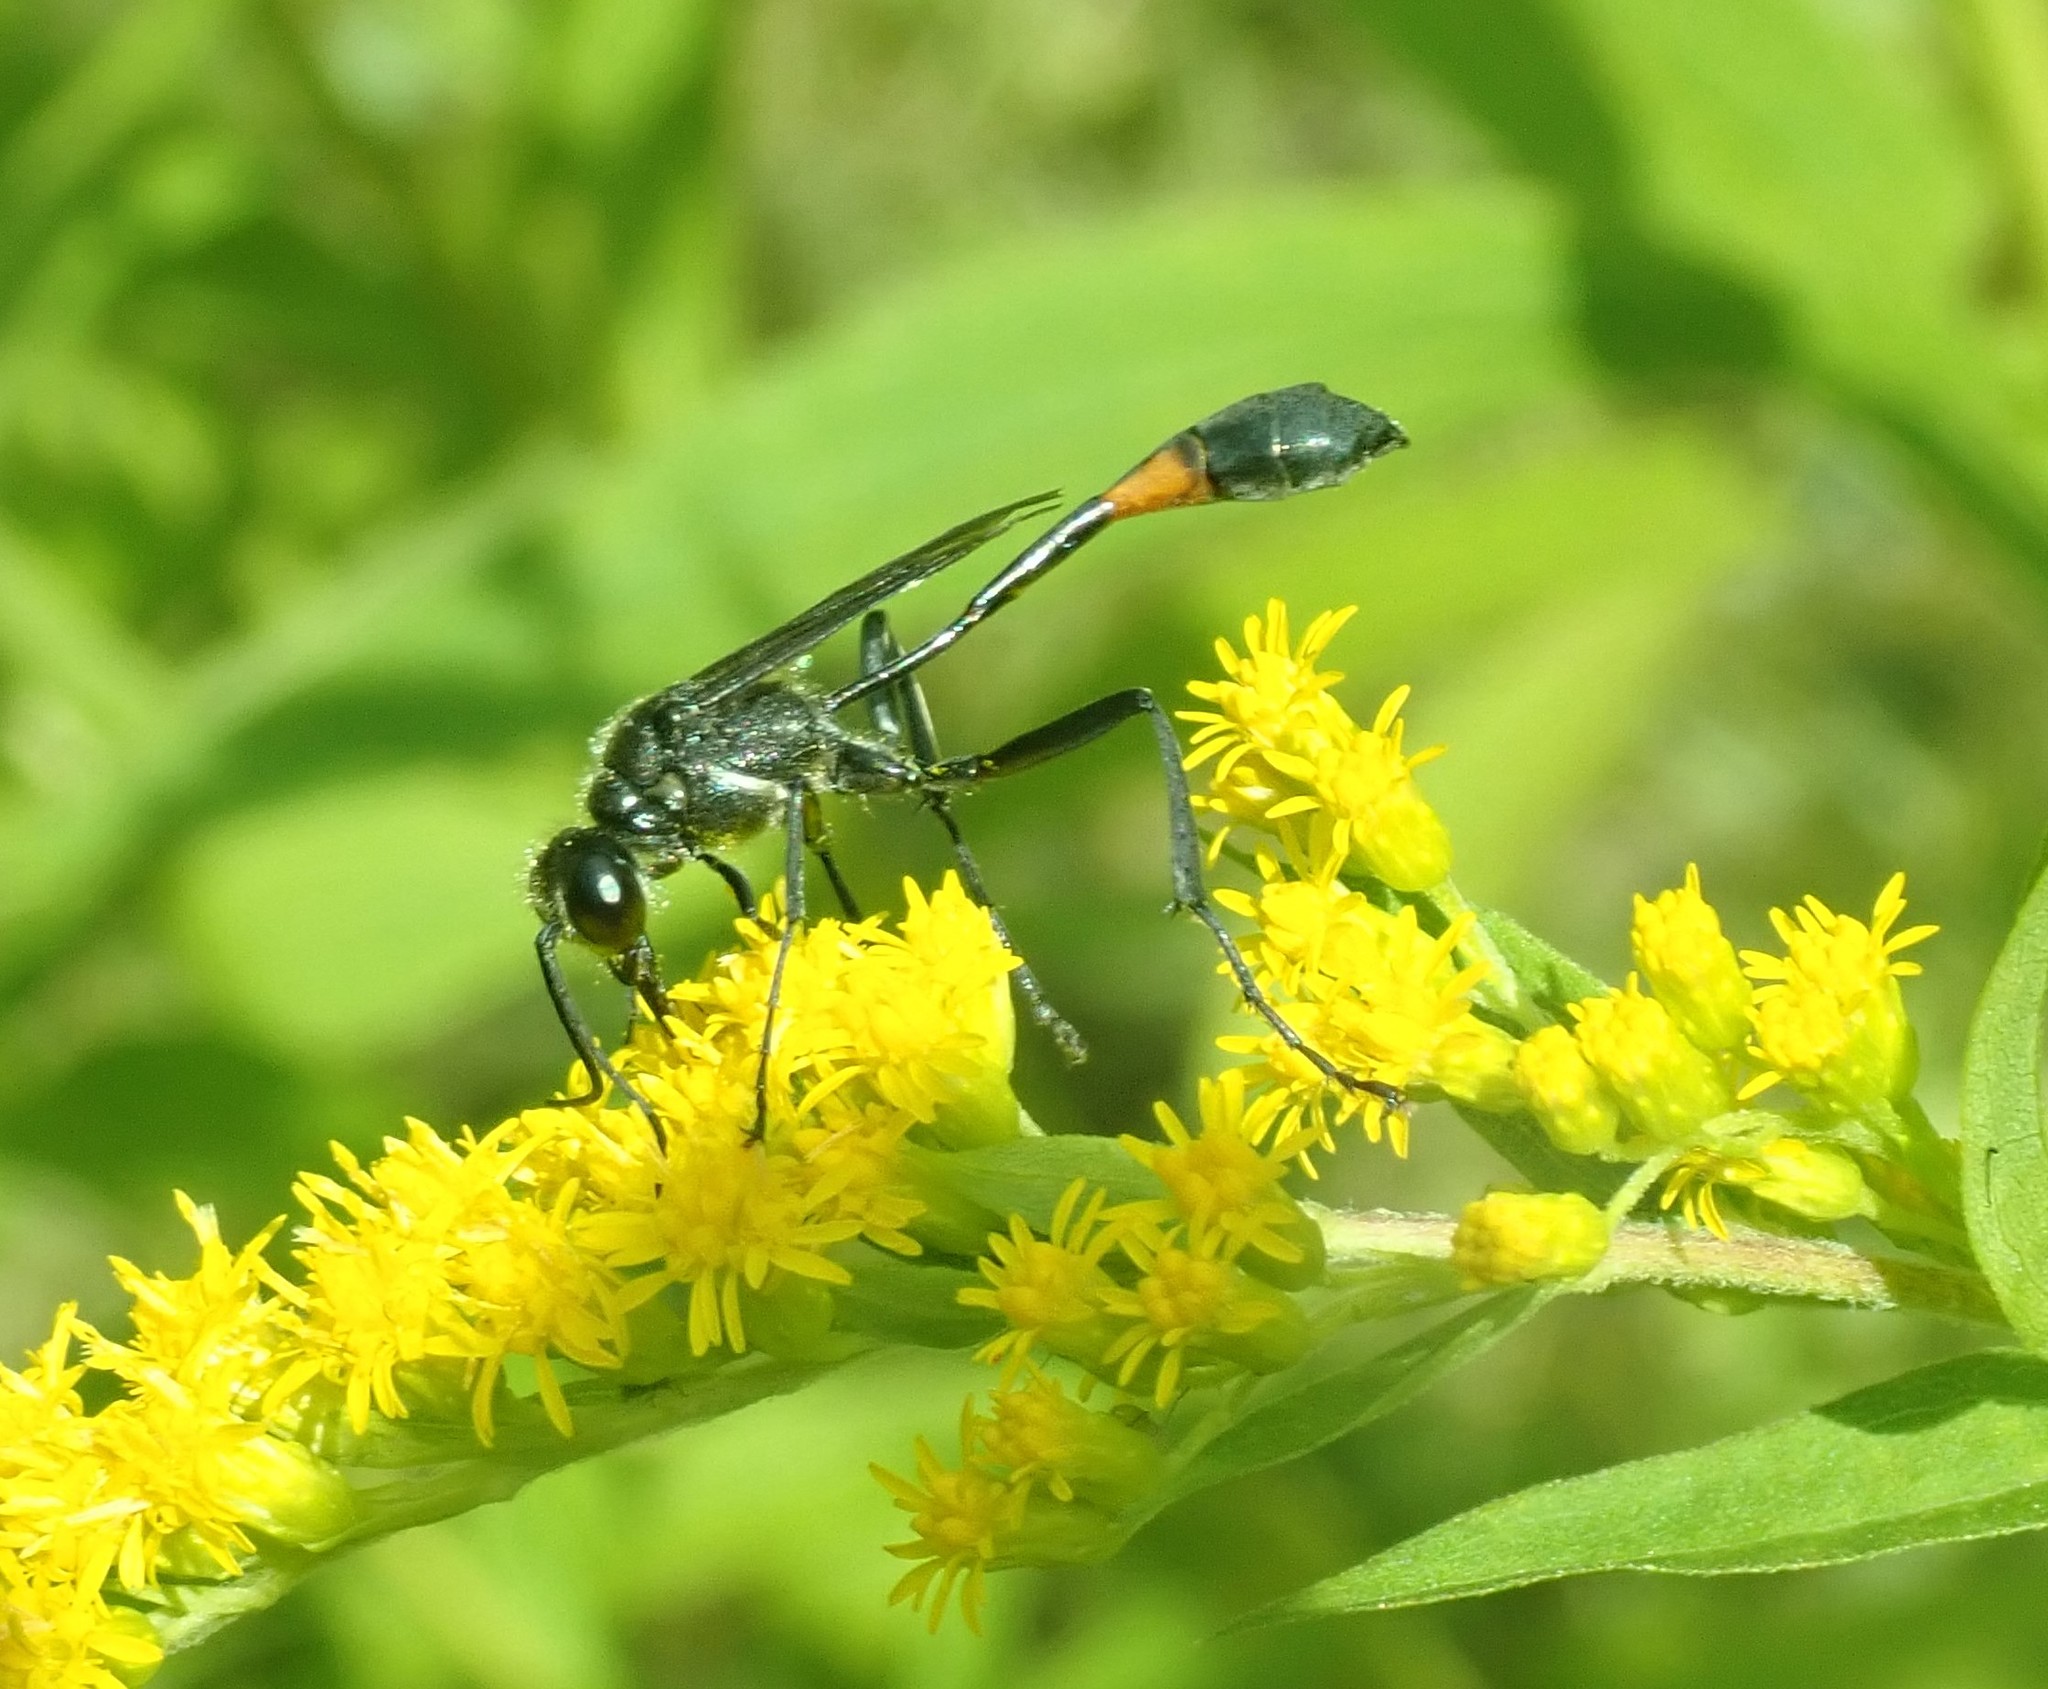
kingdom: Animalia
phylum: Arthropoda
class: Insecta
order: Hymenoptera
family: Sphecidae
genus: Ammophila
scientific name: Ammophila urnaria
